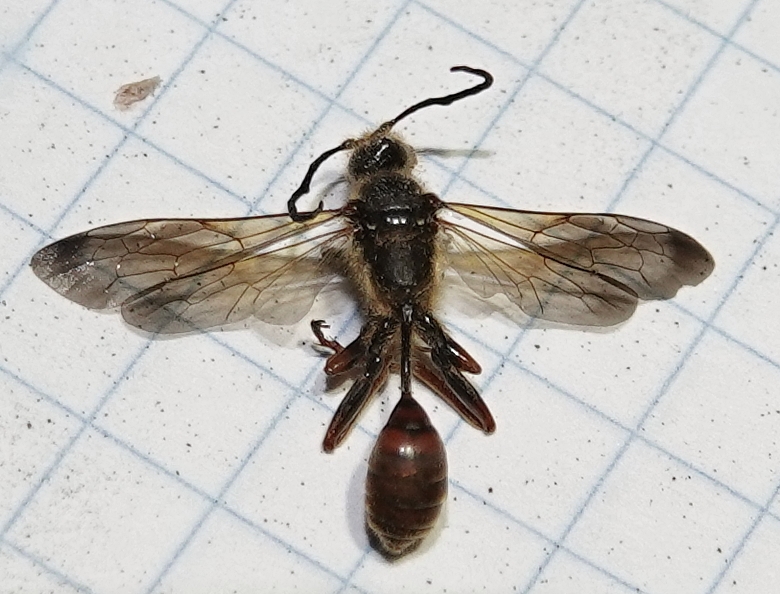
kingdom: Animalia
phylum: Arthropoda
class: Insecta
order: Hymenoptera
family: Sphecidae
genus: Isodontia
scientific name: Isodontia elegans
